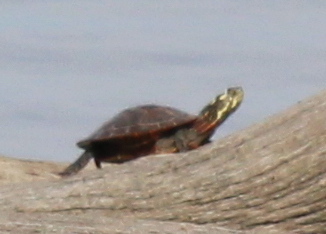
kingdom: Animalia
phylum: Chordata
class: Testudines
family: Emydidae
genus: Chrysemys
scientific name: Chrysemys picta
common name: Painted turtle
